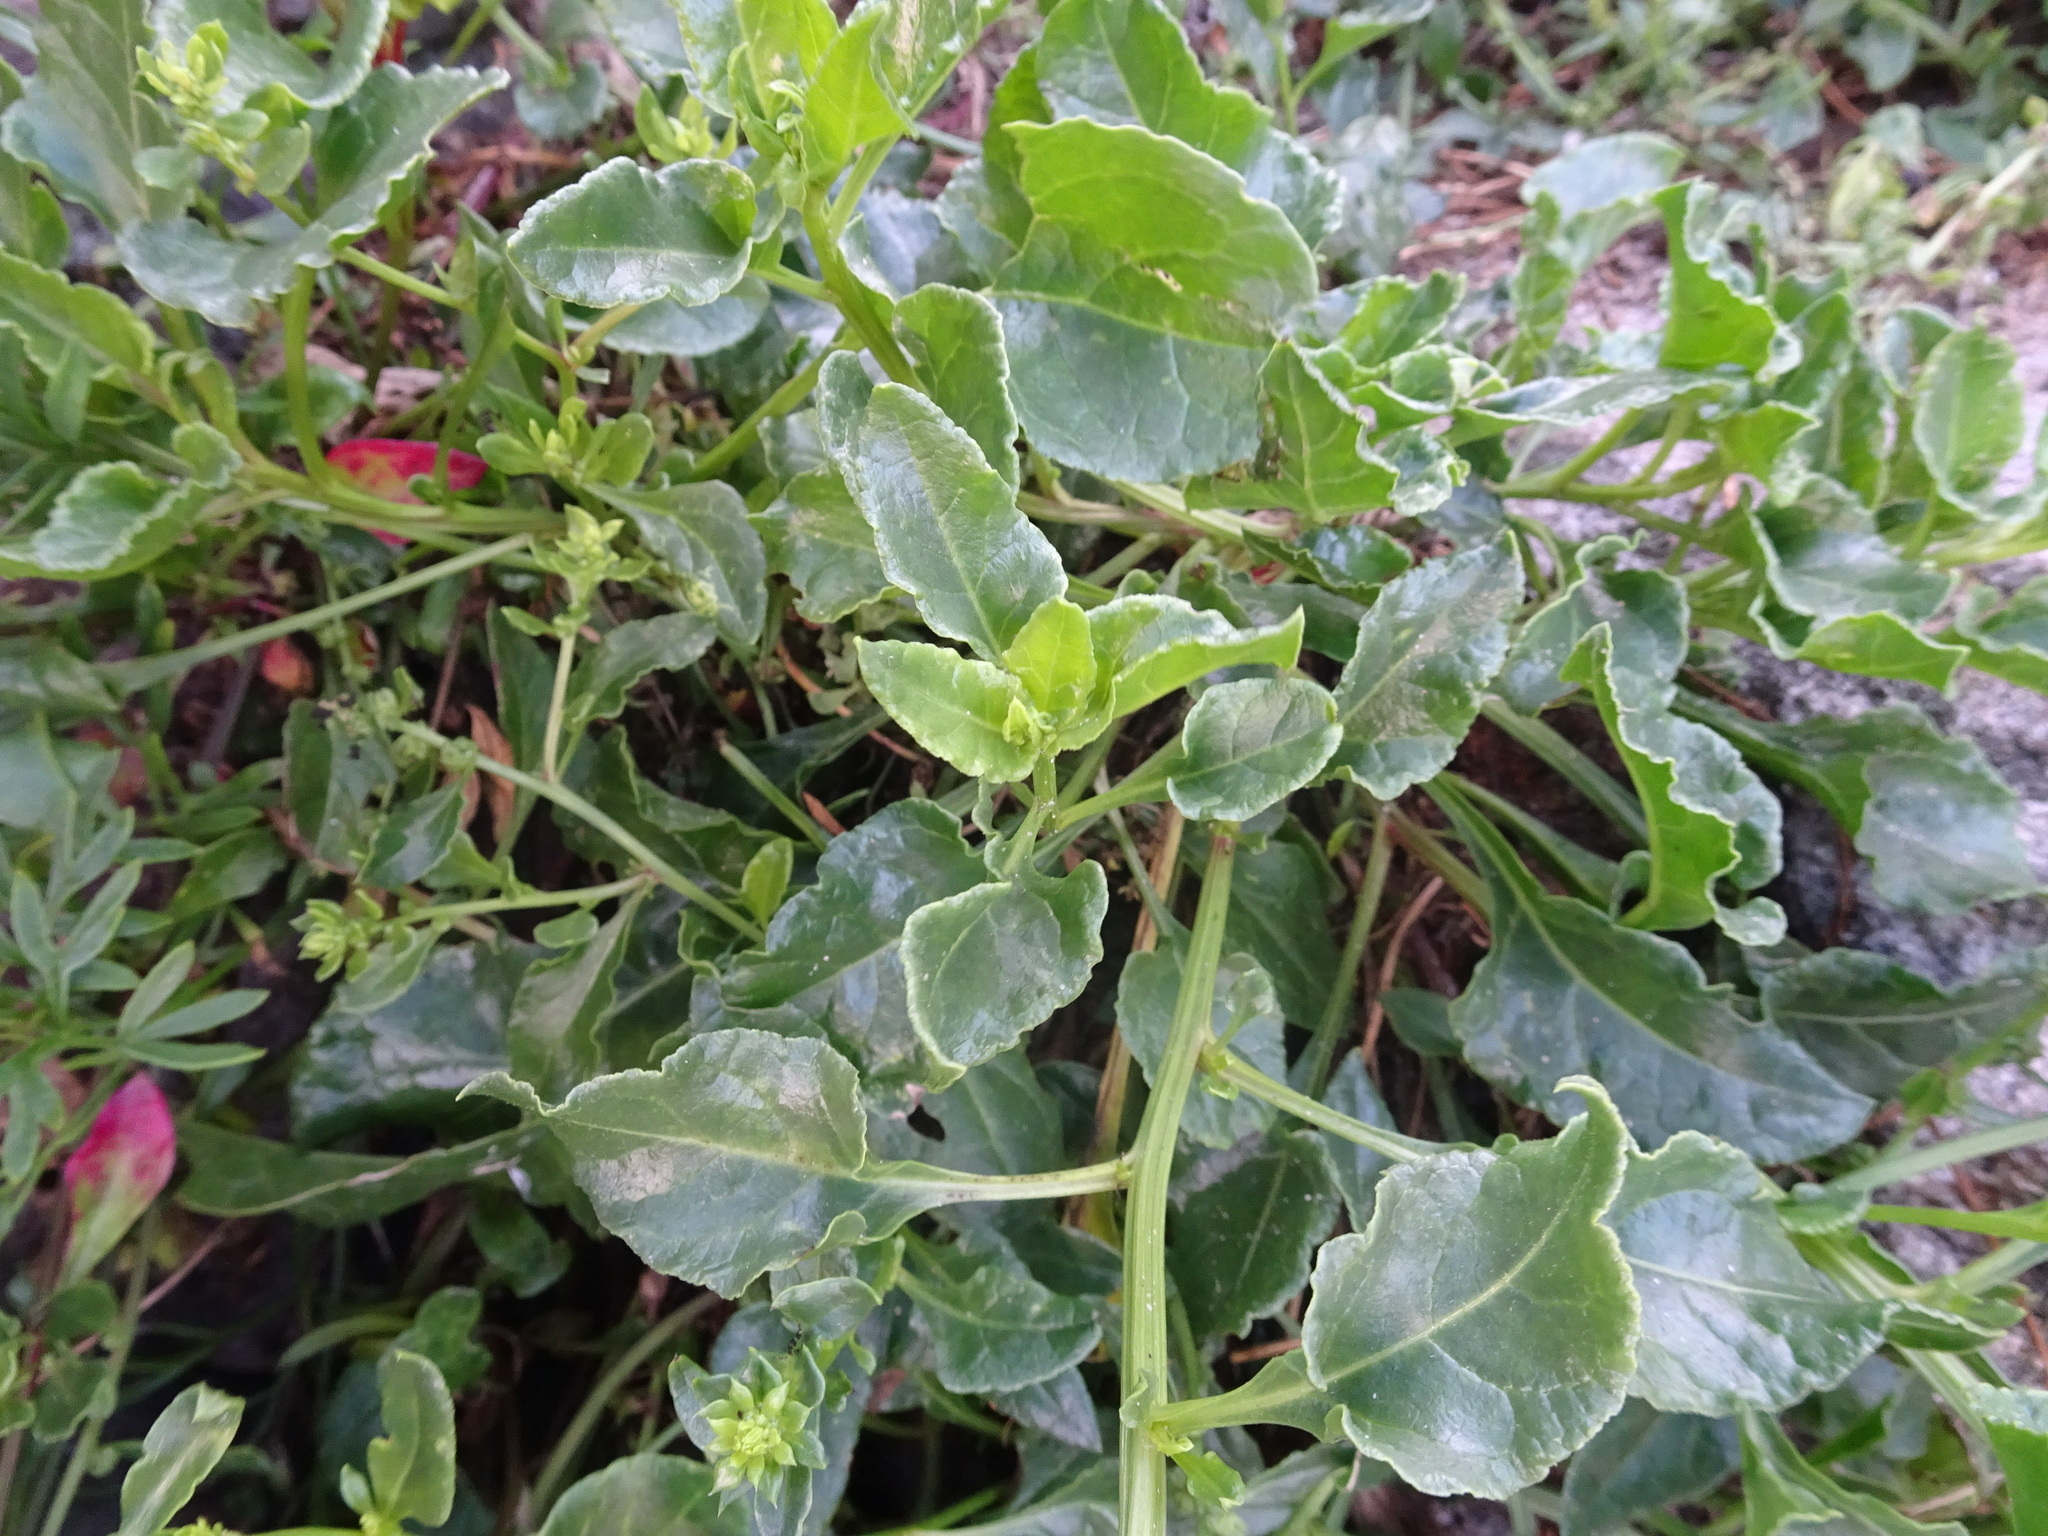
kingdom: Plantae
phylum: Tracheophyta
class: Magnoliopsida
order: Caryophyllales
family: Amaranthaceae
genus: Beta
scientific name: Beta vulgaris
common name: Beet
